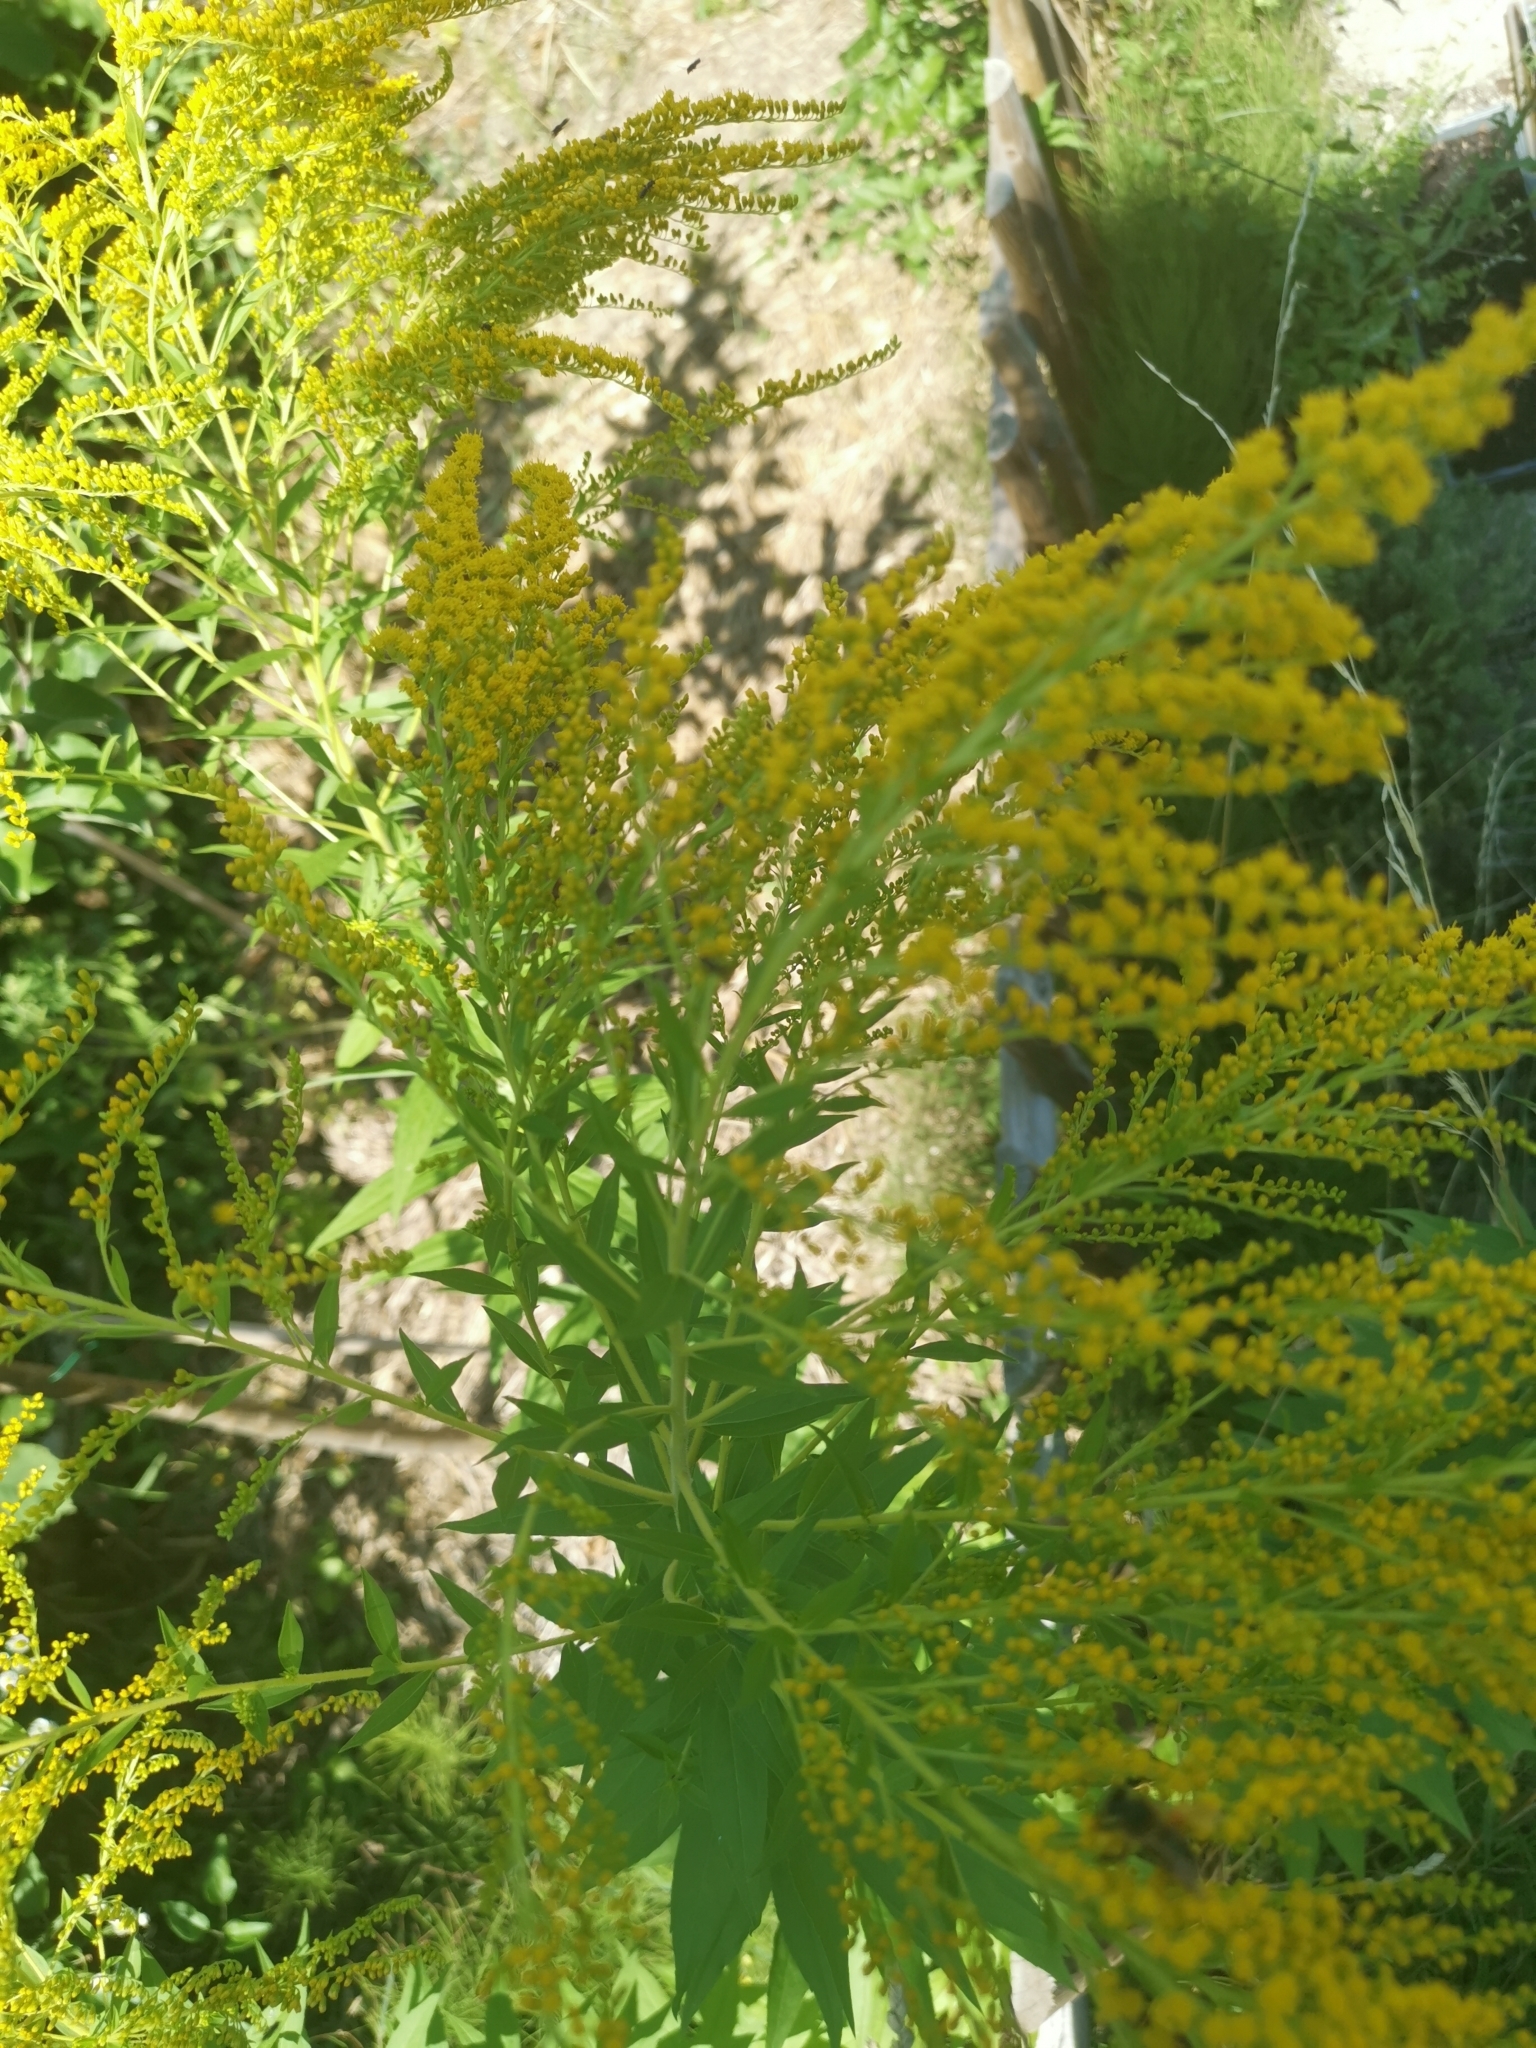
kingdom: Plantae
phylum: Tracheophyta
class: Magnoliopsida
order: Asterales
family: Asteraceae
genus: Solidago
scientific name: Solidago canadensis
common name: Canada goldenrod
